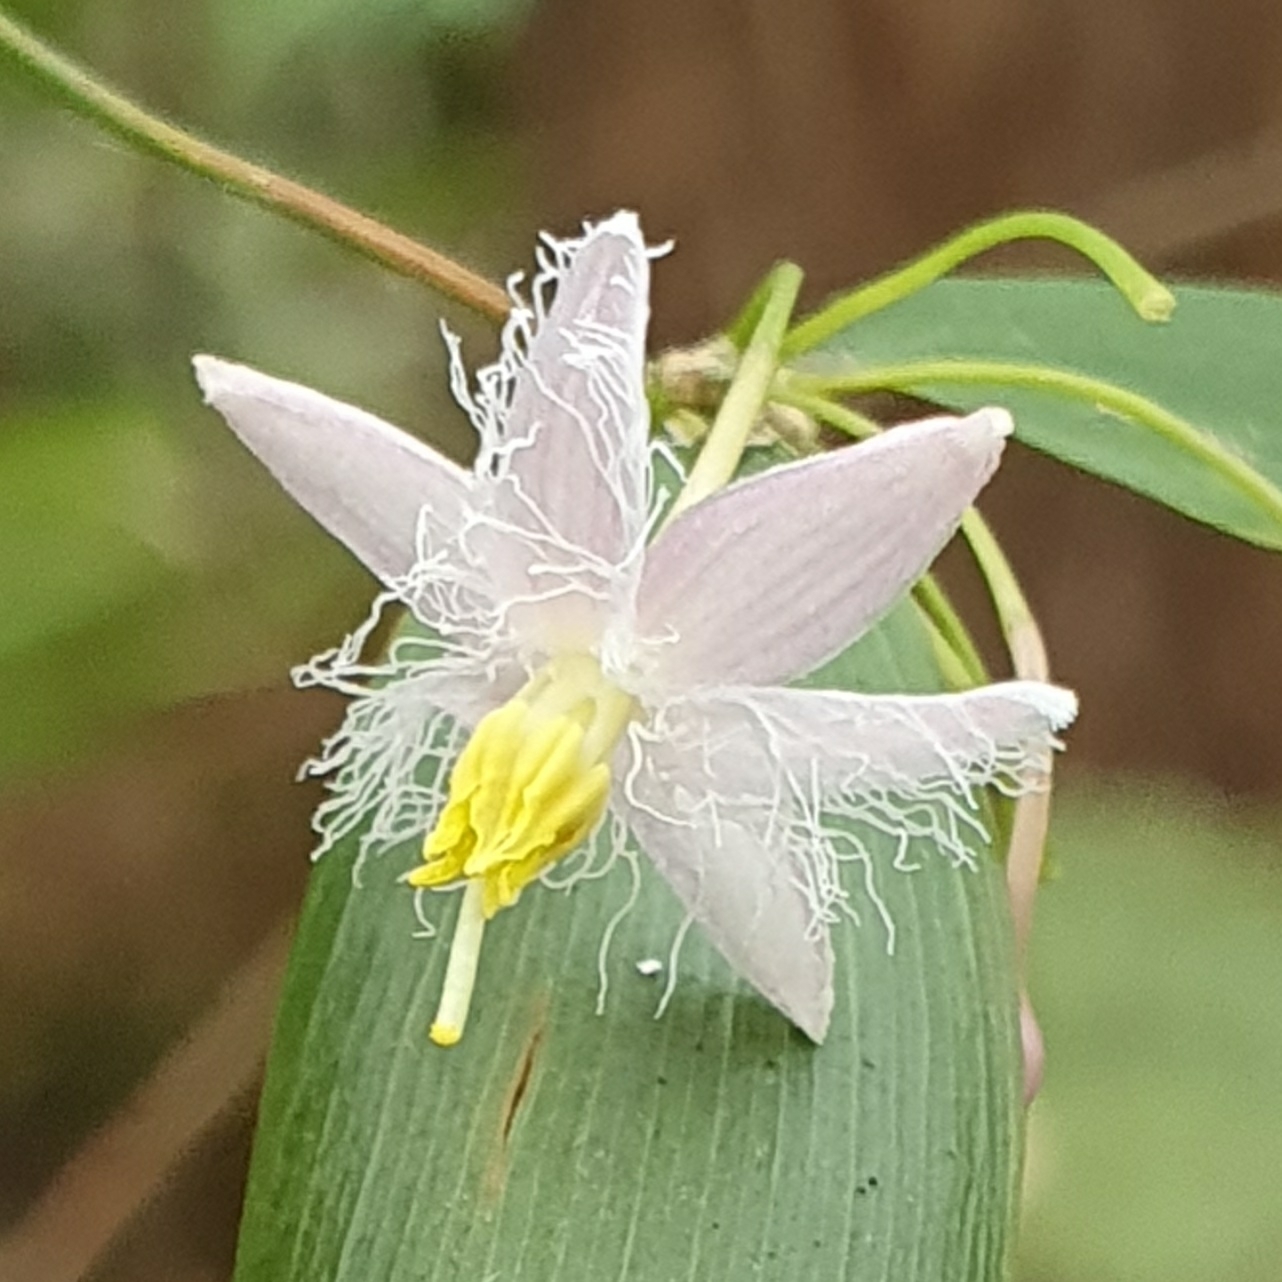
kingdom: Plantae
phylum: Tracheophyta
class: Liliopsida
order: Asparagales
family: Asparagaceae
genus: Eustrephus
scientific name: Eustrephus latifolius
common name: Orangevine
